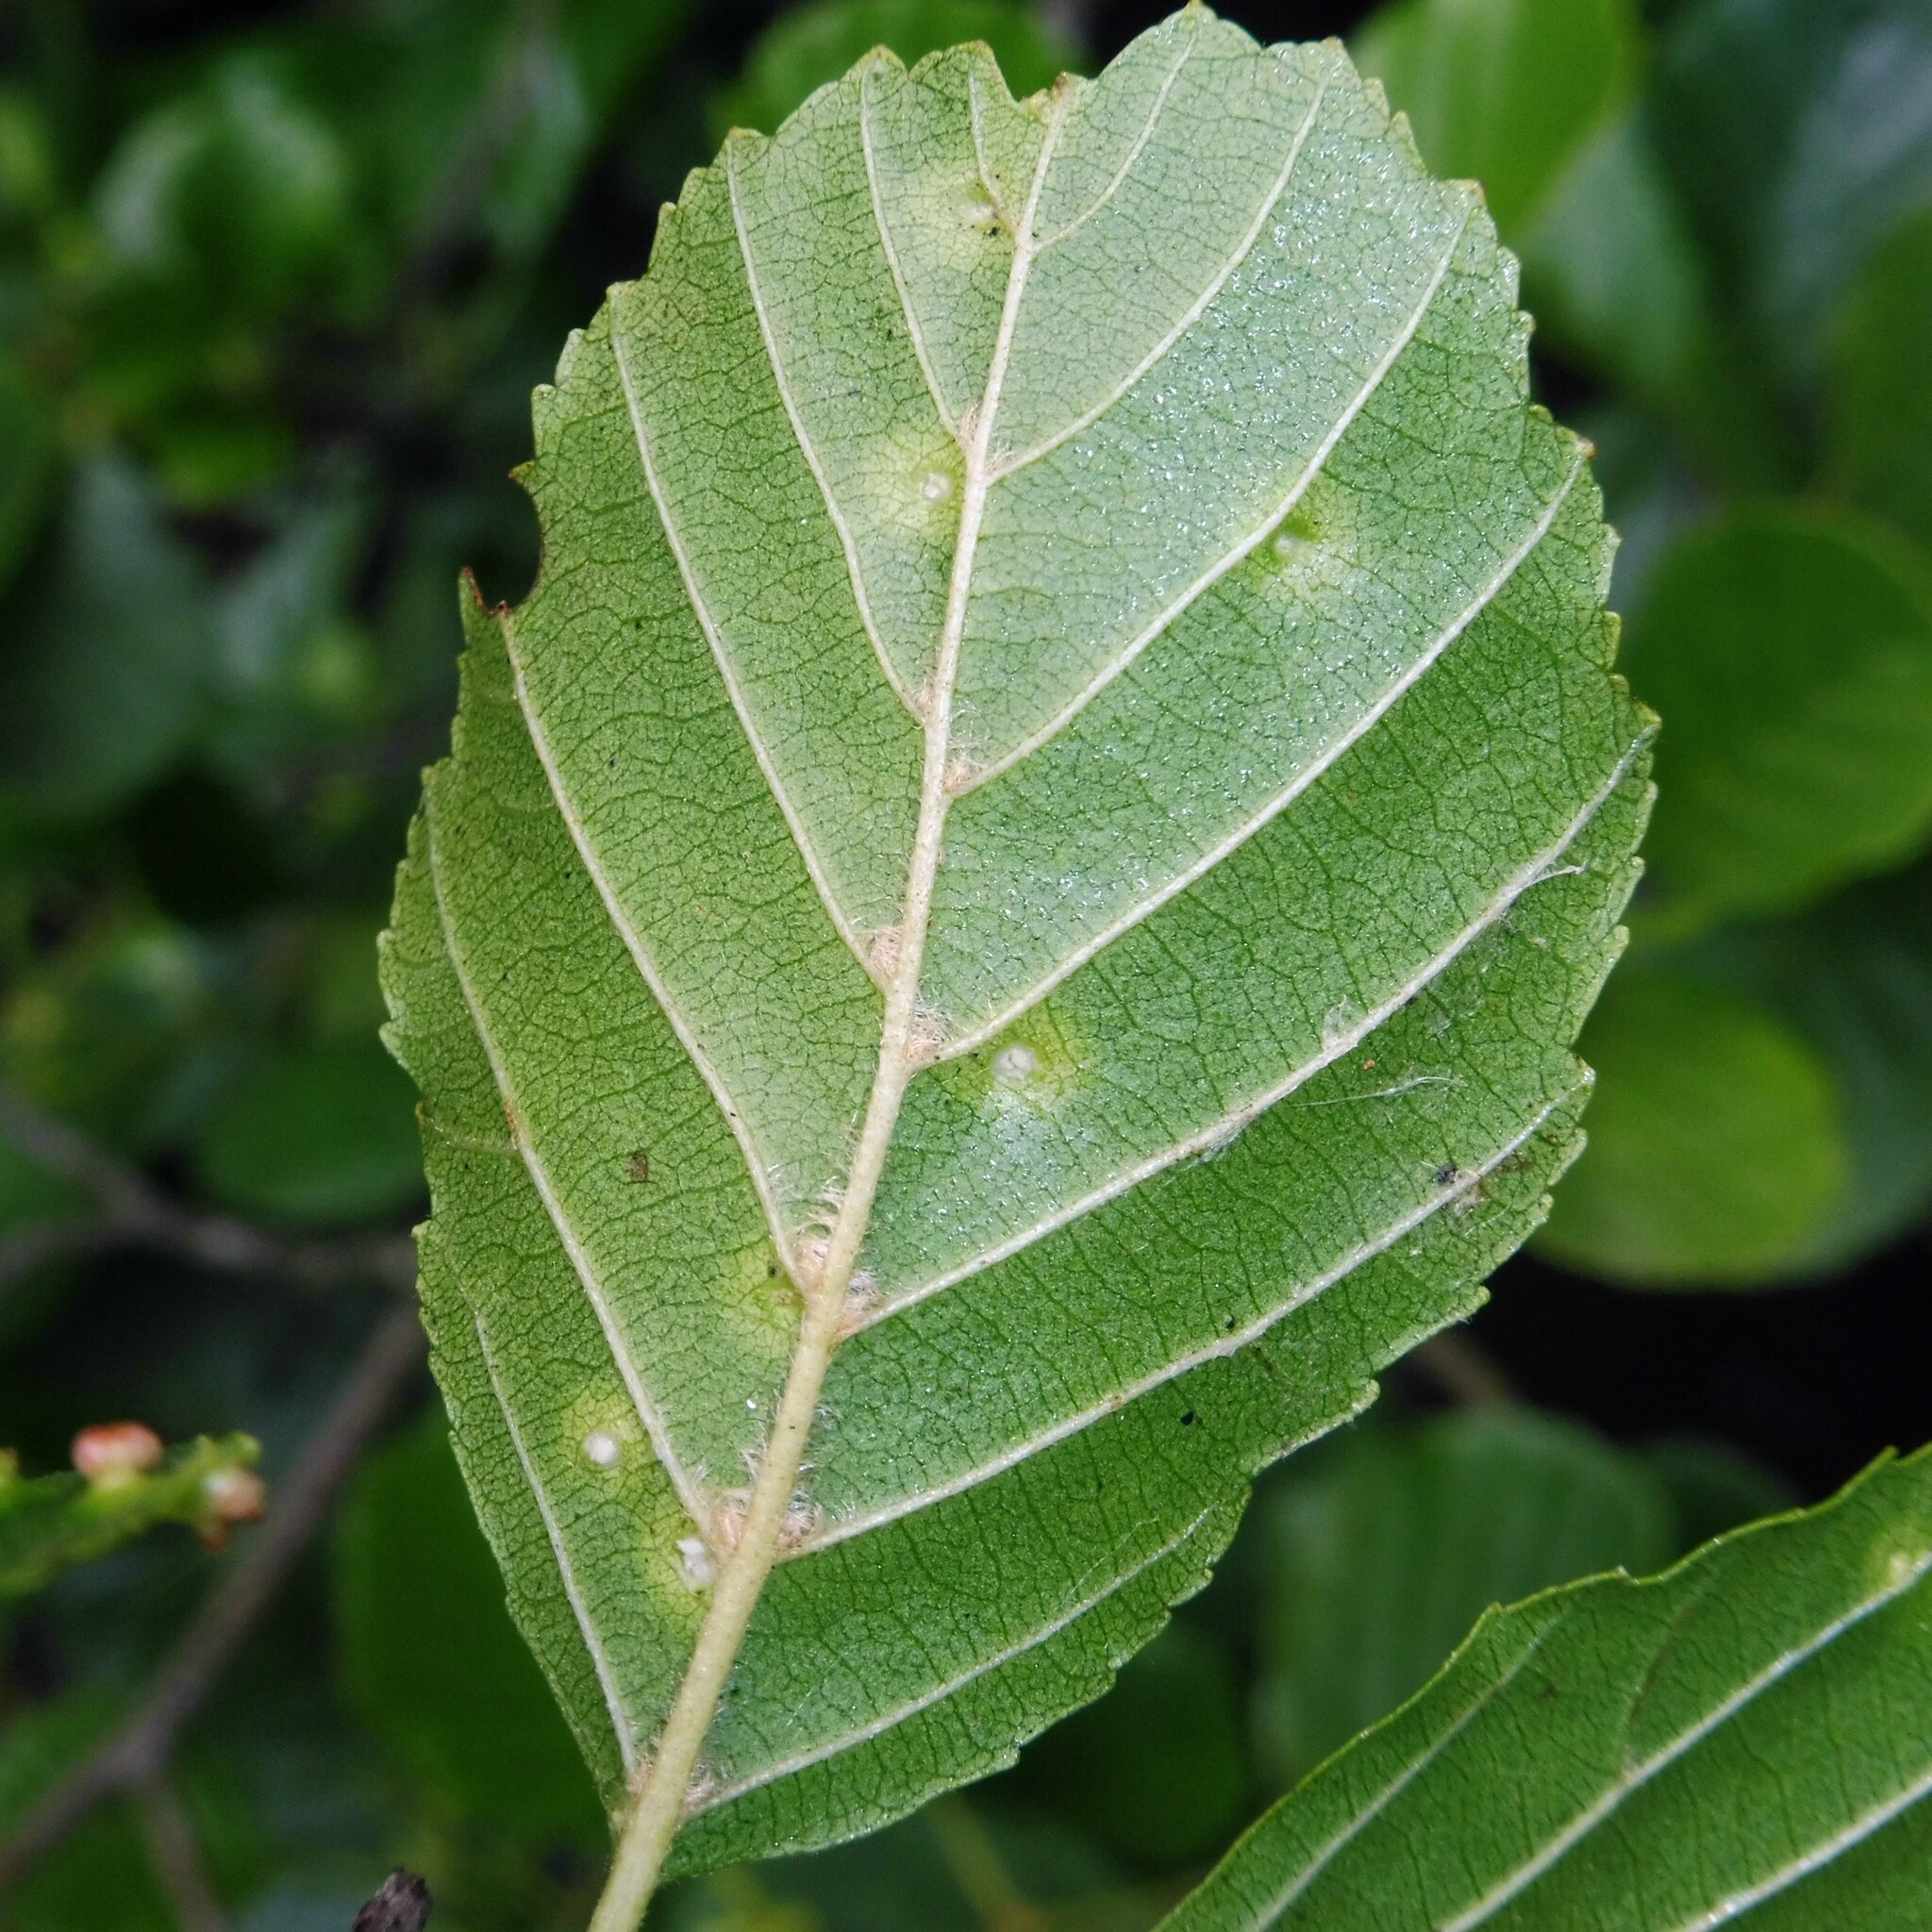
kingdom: Animalia
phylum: Arthropoda
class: Arachnida
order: Trombidiformes
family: Eriophyidae
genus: Eriophyes
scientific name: Eriophyes laevis
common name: Alder leaf gall mite
